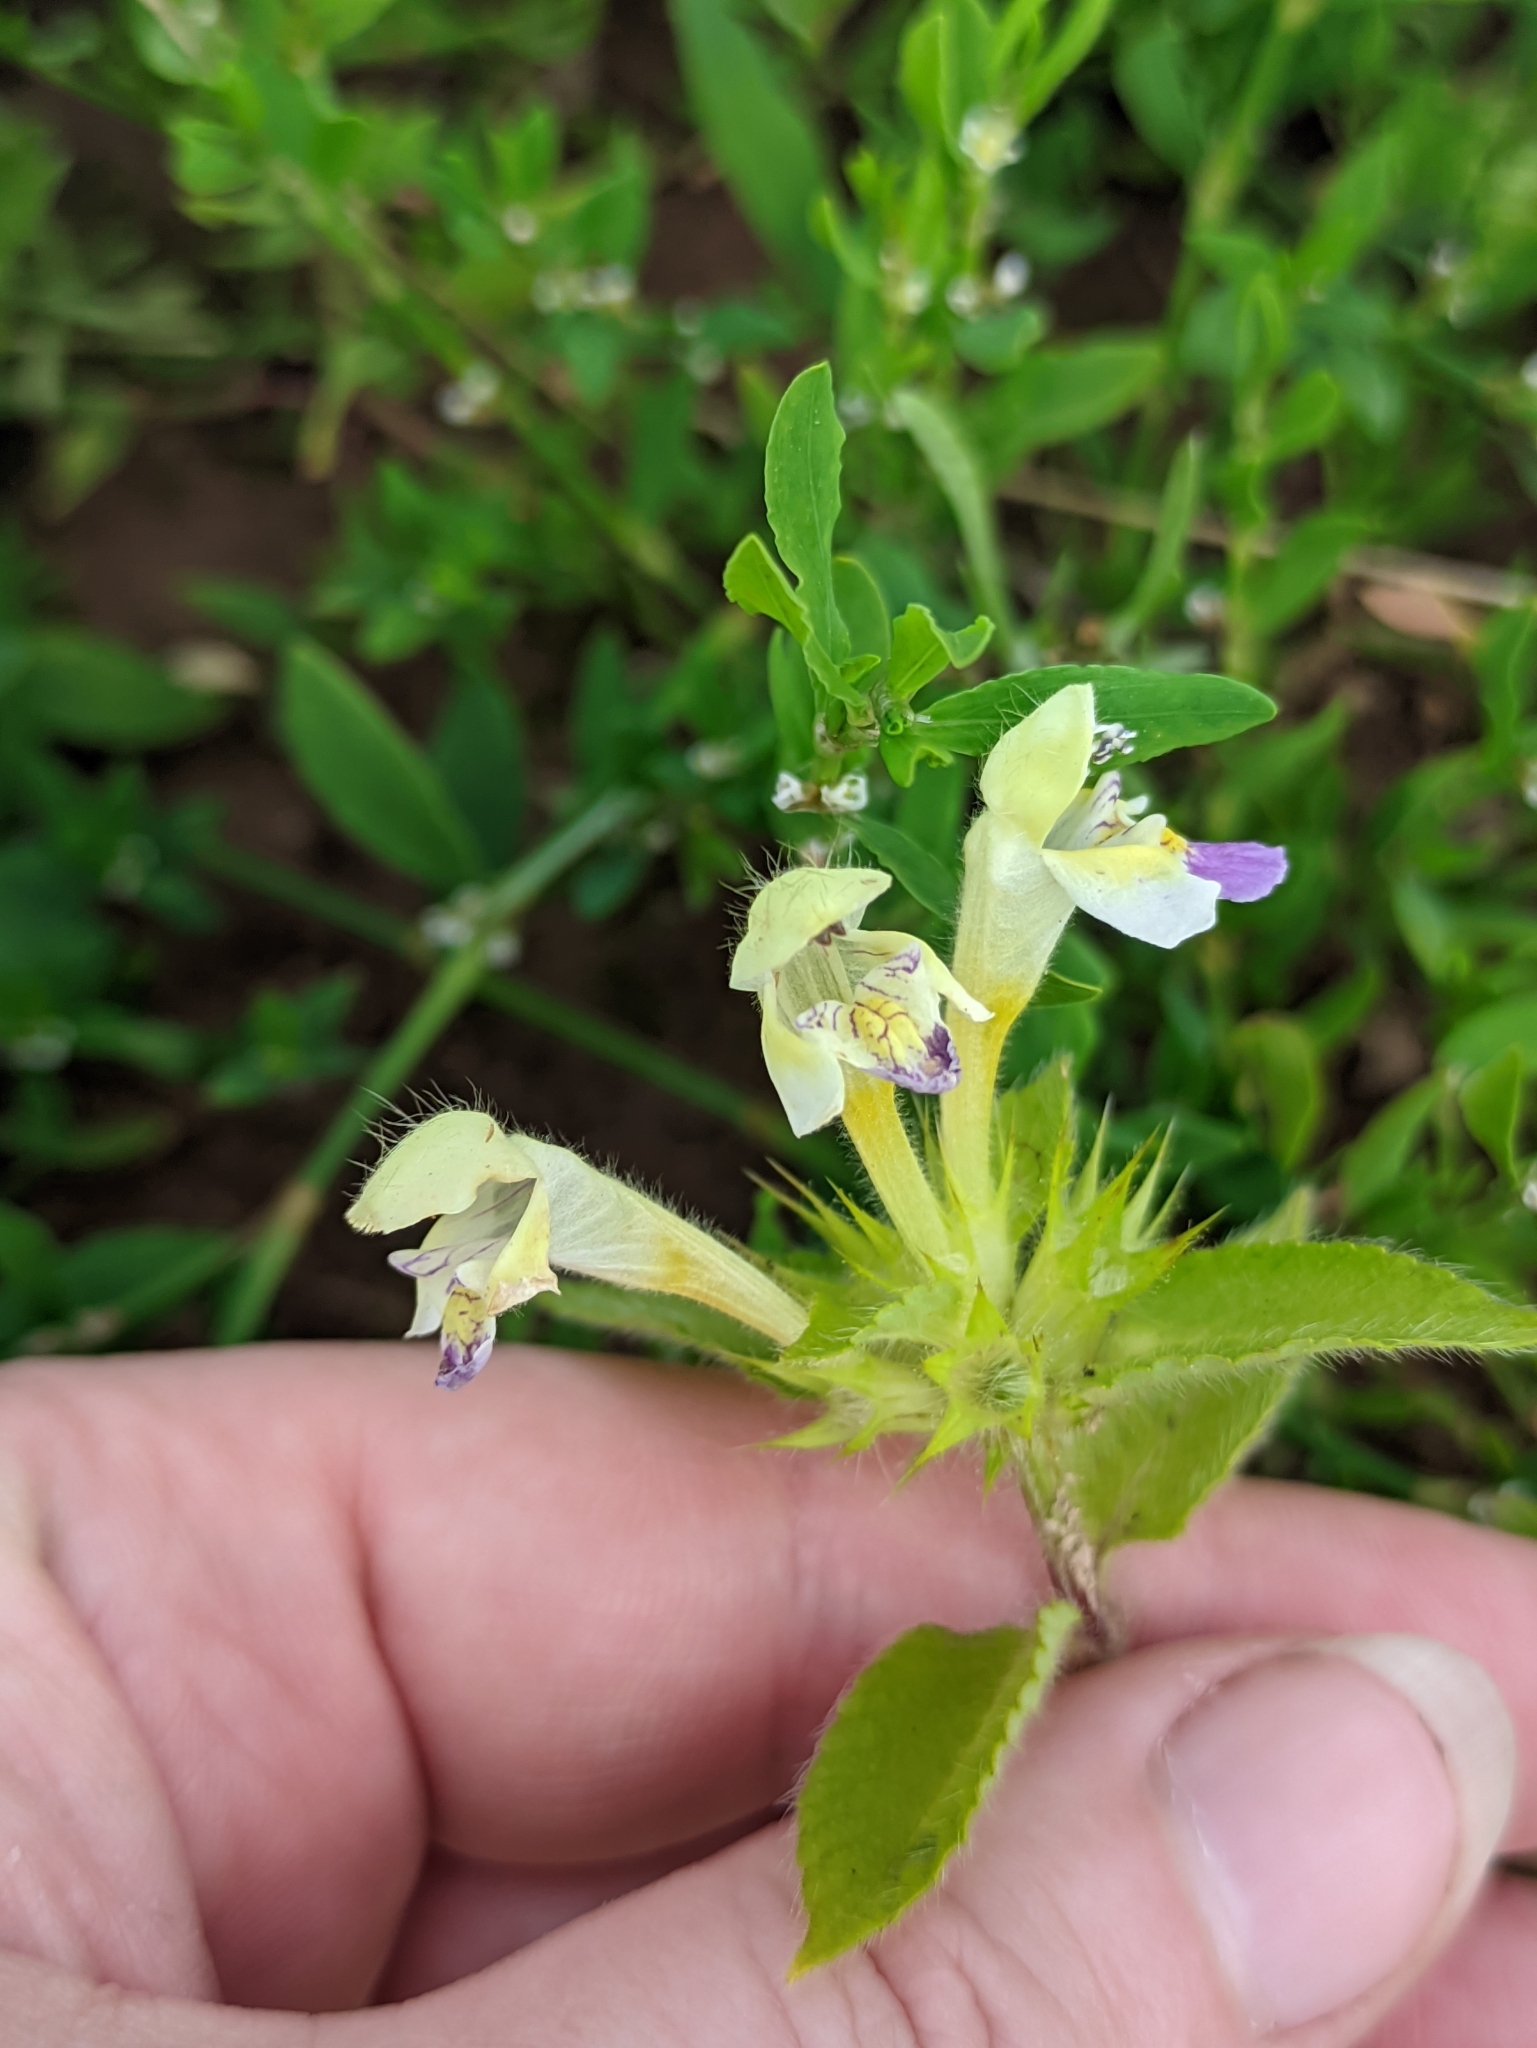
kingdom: Plantae
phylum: Tracheophyta
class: Magnoliopsida
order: Lamiales
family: Lamiaceae
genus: Galeopsis
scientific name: Galeopsis speciosa
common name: Large-flowered hemp-nettle
